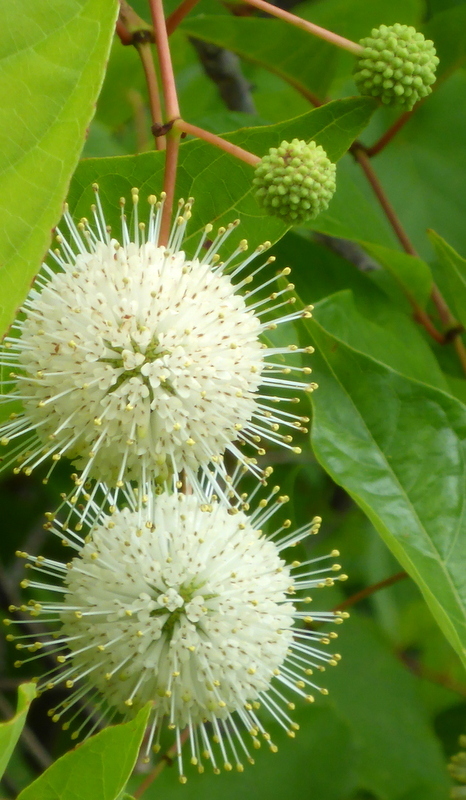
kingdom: Plantae
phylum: Tracheophyta
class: Magnoliopsida
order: Gentianales
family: Rubiaceae
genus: Cephalanthus
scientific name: Cephalanthus occidentalis
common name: Button-willow
